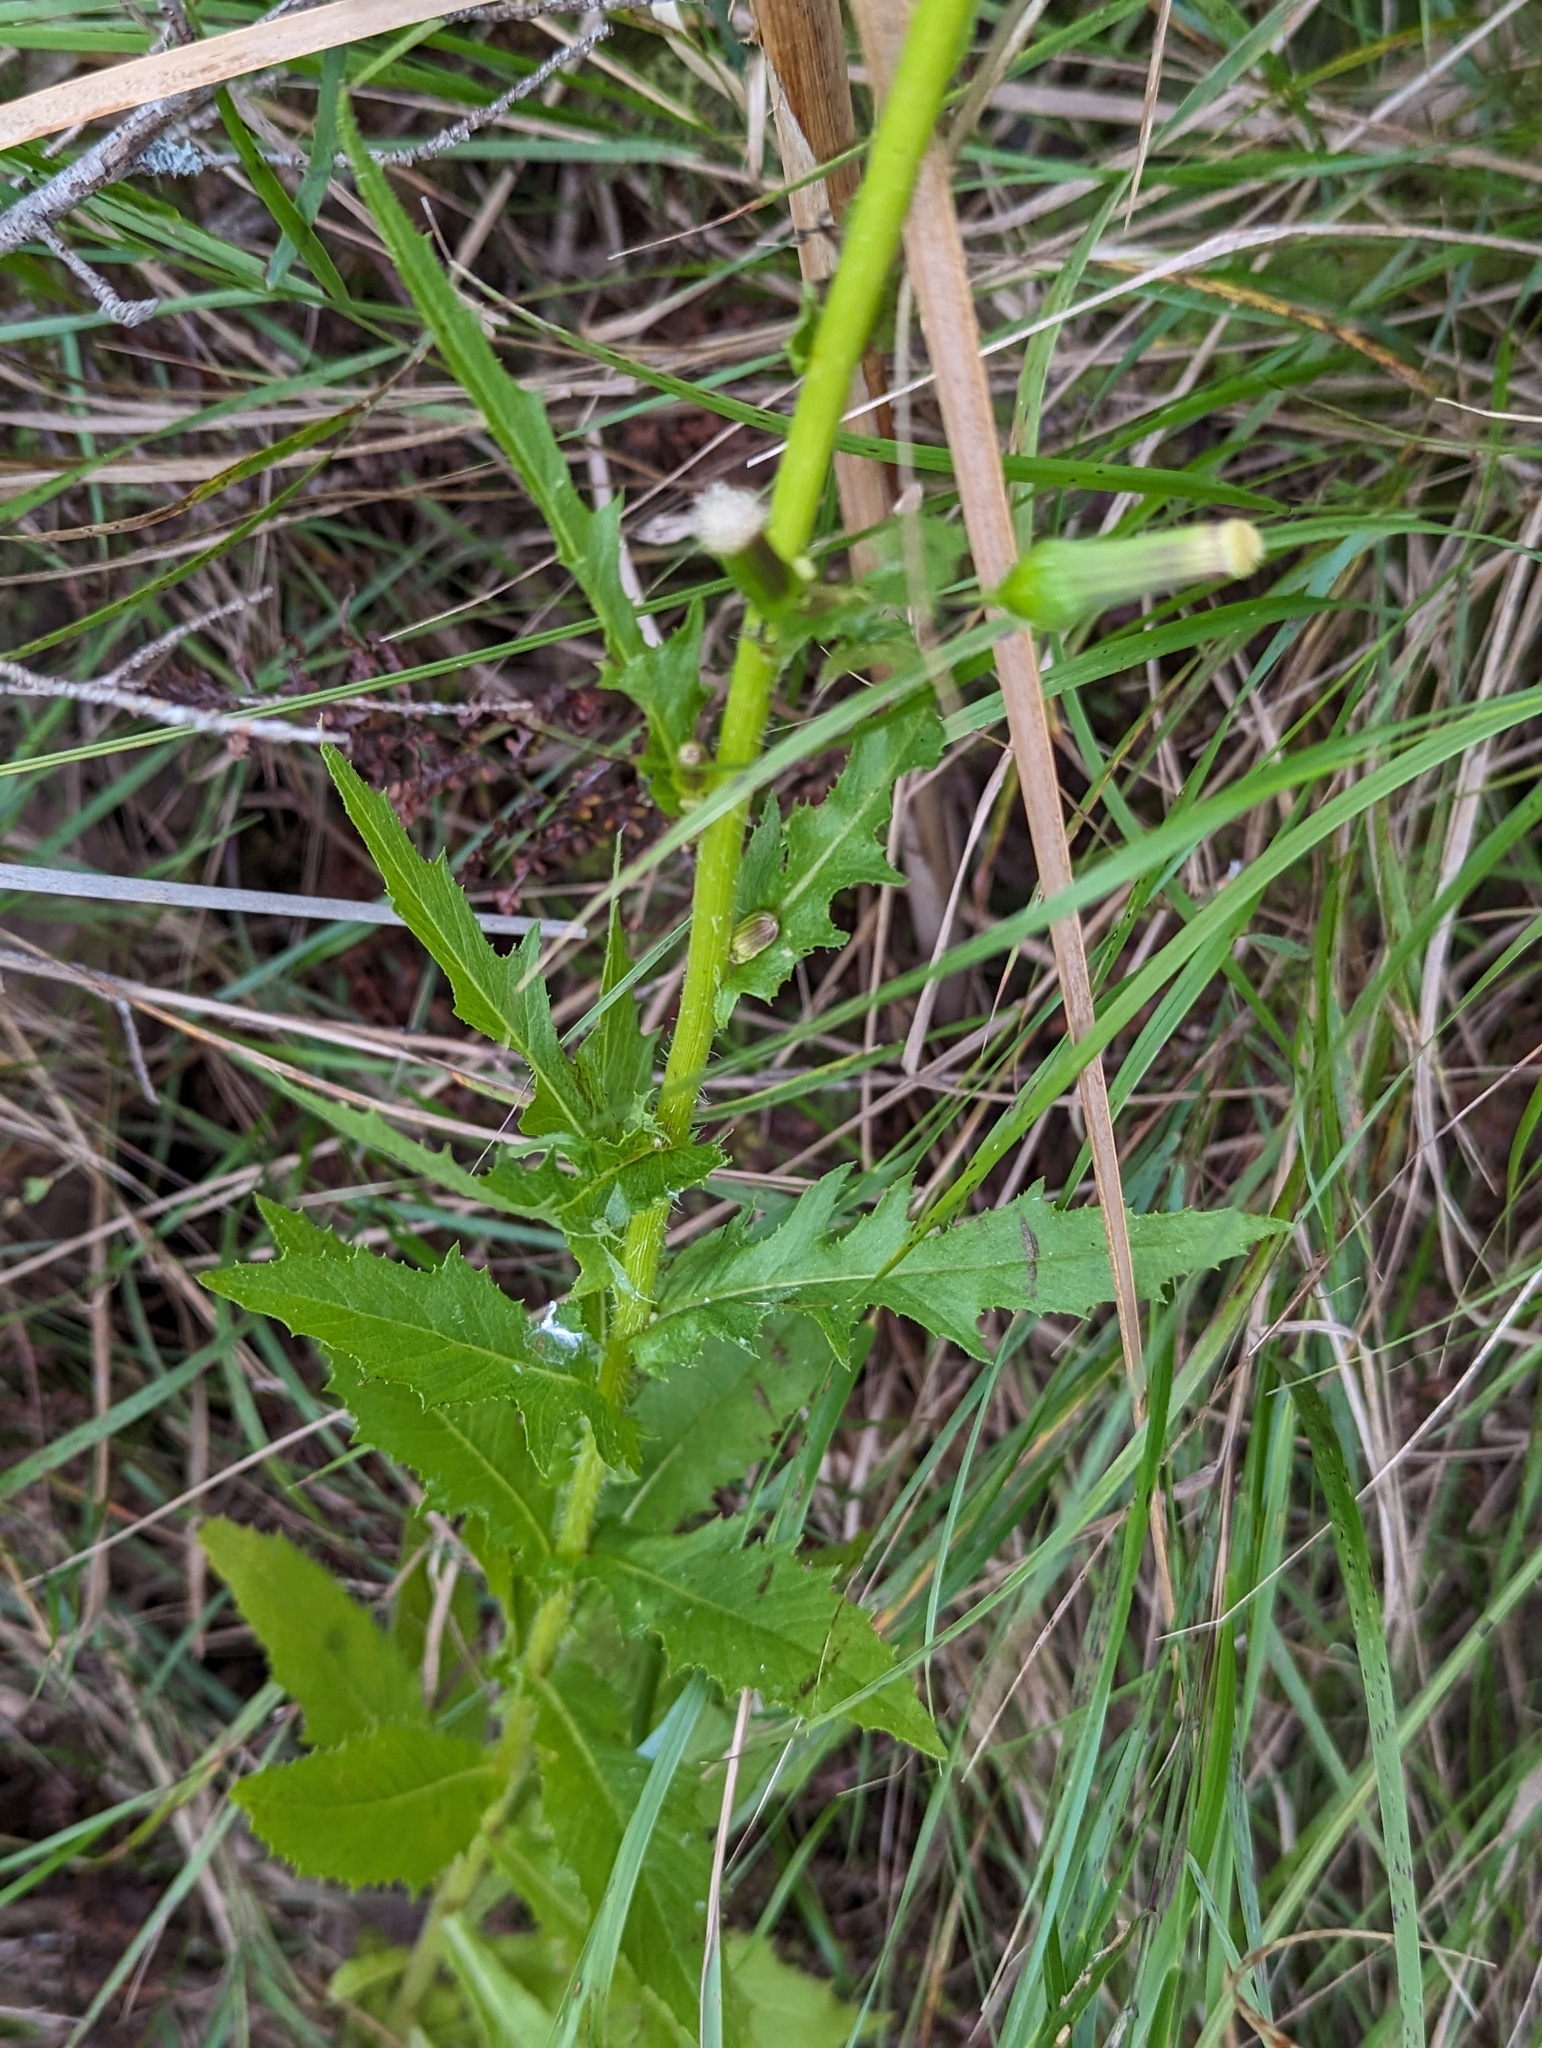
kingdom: Plantae
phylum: Tracheophyta
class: Magnoliopsida
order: Asterales
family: Asteraceae
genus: Erechtites
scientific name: Erechtites hieraciifolius
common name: American burnweed
